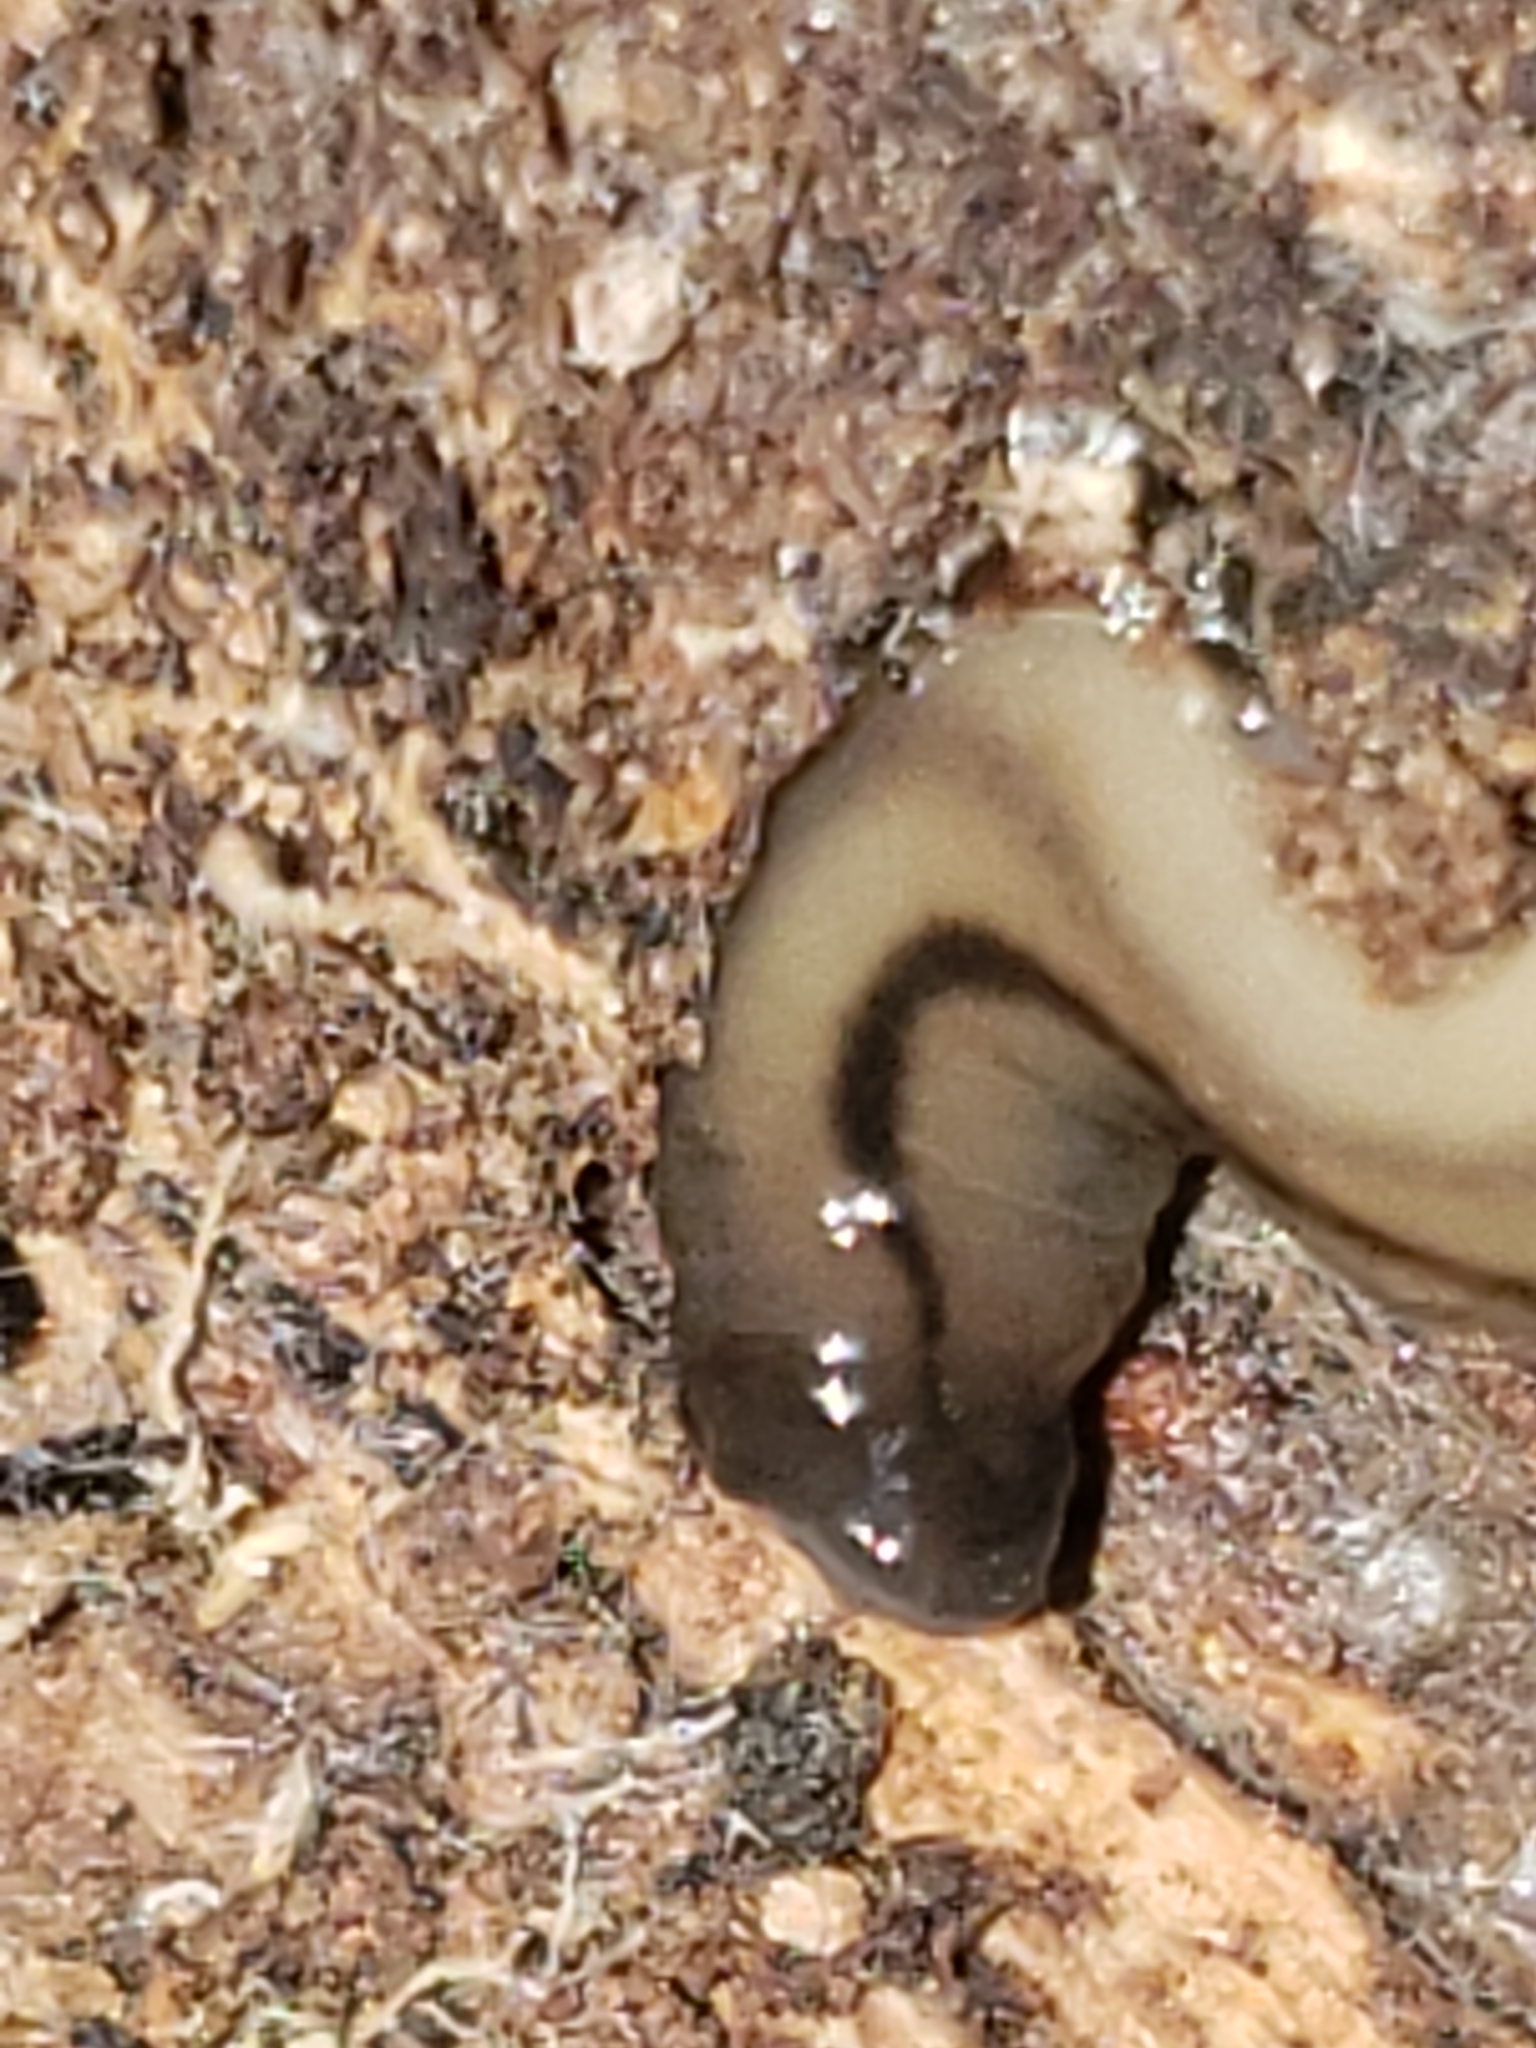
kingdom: Animalia
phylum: Platyhelminthes
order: Tricladida
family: Geoplanidae
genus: Bipalium
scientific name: Bipalium pennsylvanicum
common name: Three-lined land planarian
